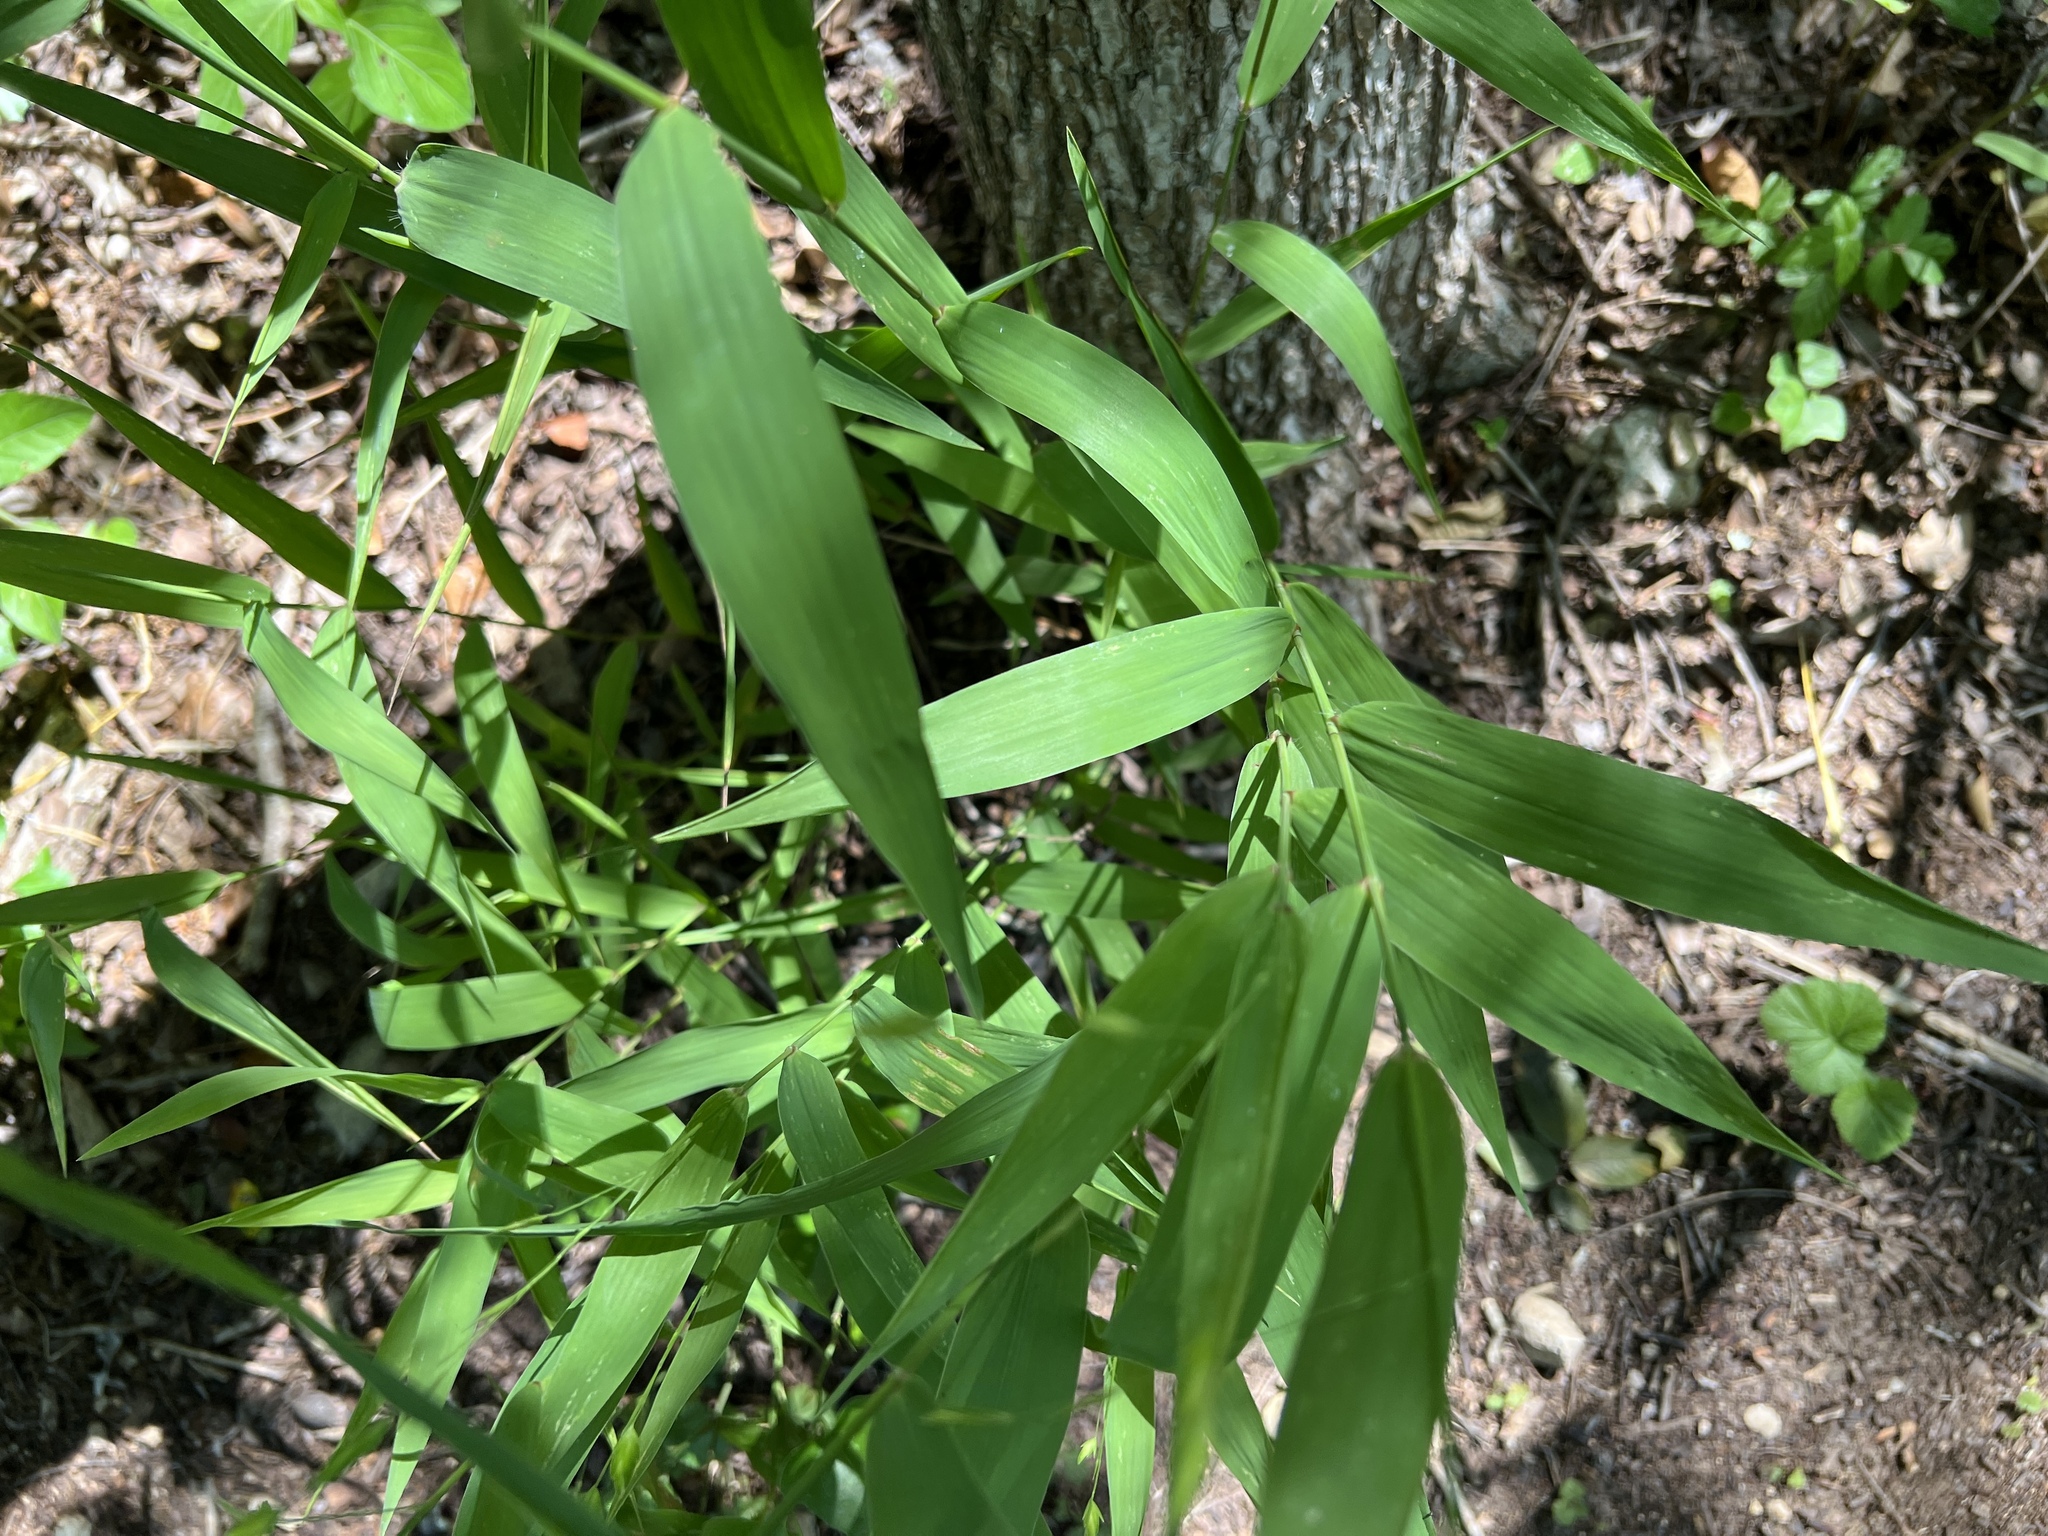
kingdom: Plantae
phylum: Tracheophyta
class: Liliopsida
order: Poales
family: Poaceae
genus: Chasmanthium
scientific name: Chasmanthium latifolium
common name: Broad-leaved chasmanthium
